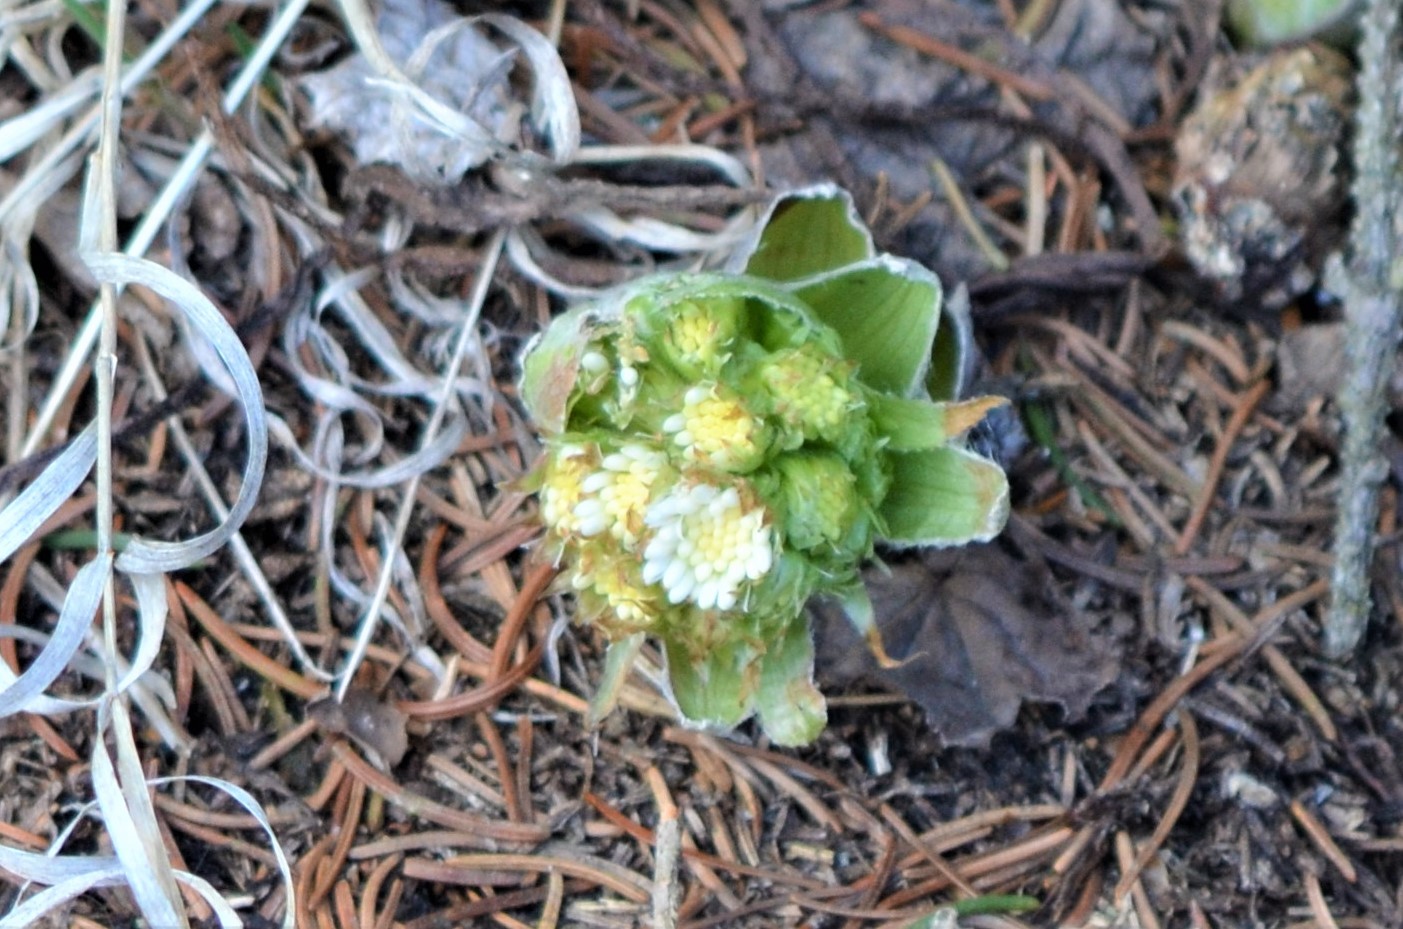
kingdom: Plantae
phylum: Tracheophyta
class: Magnoliopsida
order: Asterales
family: Asteraceae
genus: Petasites
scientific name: Petasites albus
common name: White butterbur
